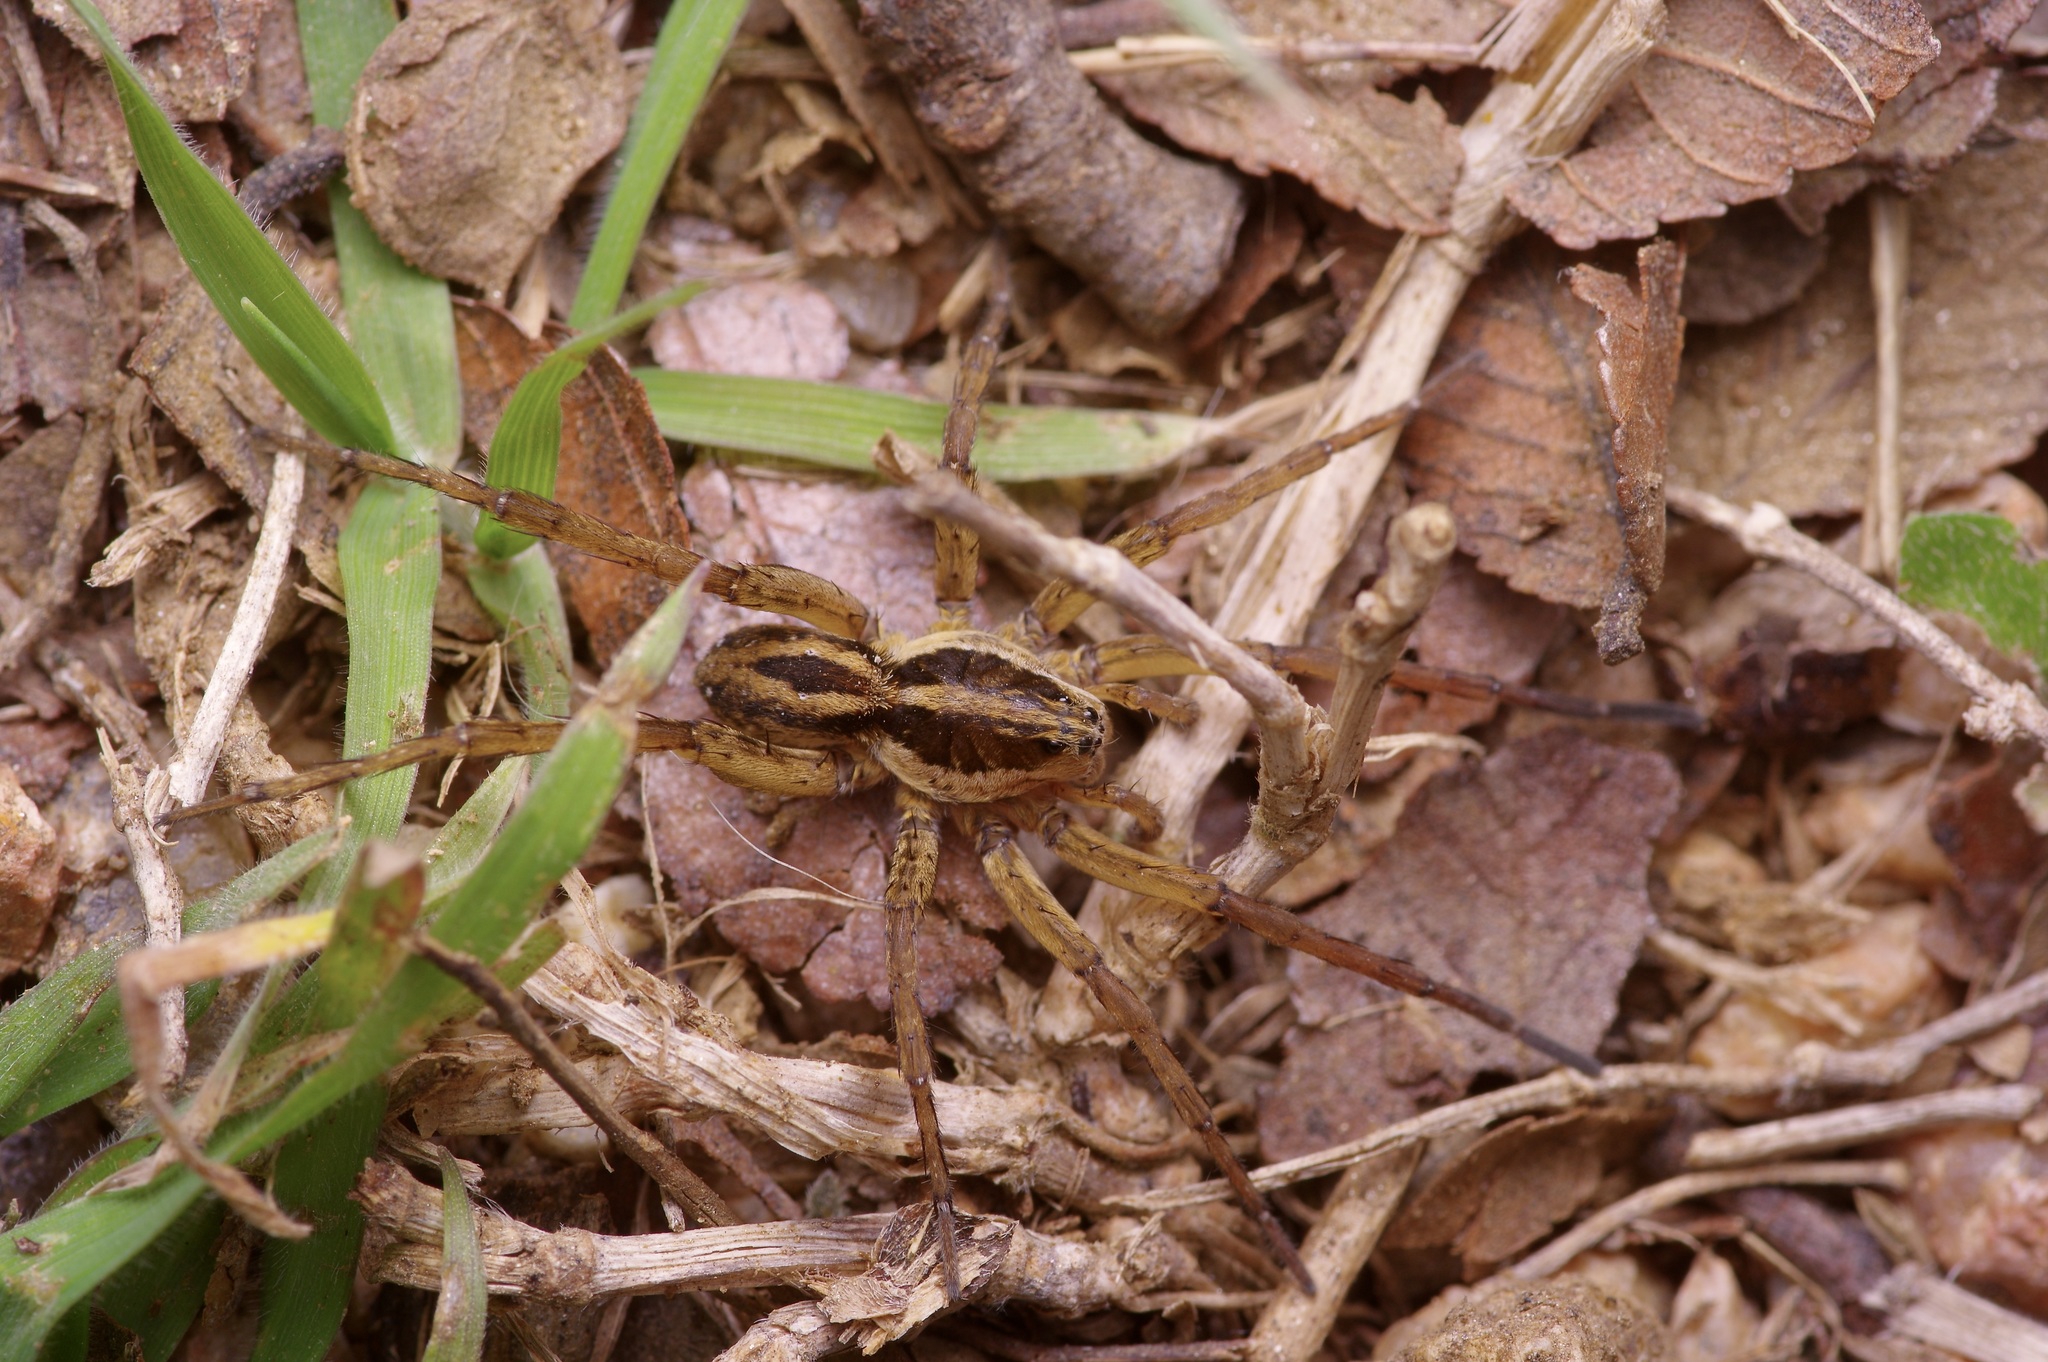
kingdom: Animalia
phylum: Arthropoda
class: Arachnida
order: Araneae
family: Lycosidae
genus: Tigrosa
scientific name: Tigrosa annexa
